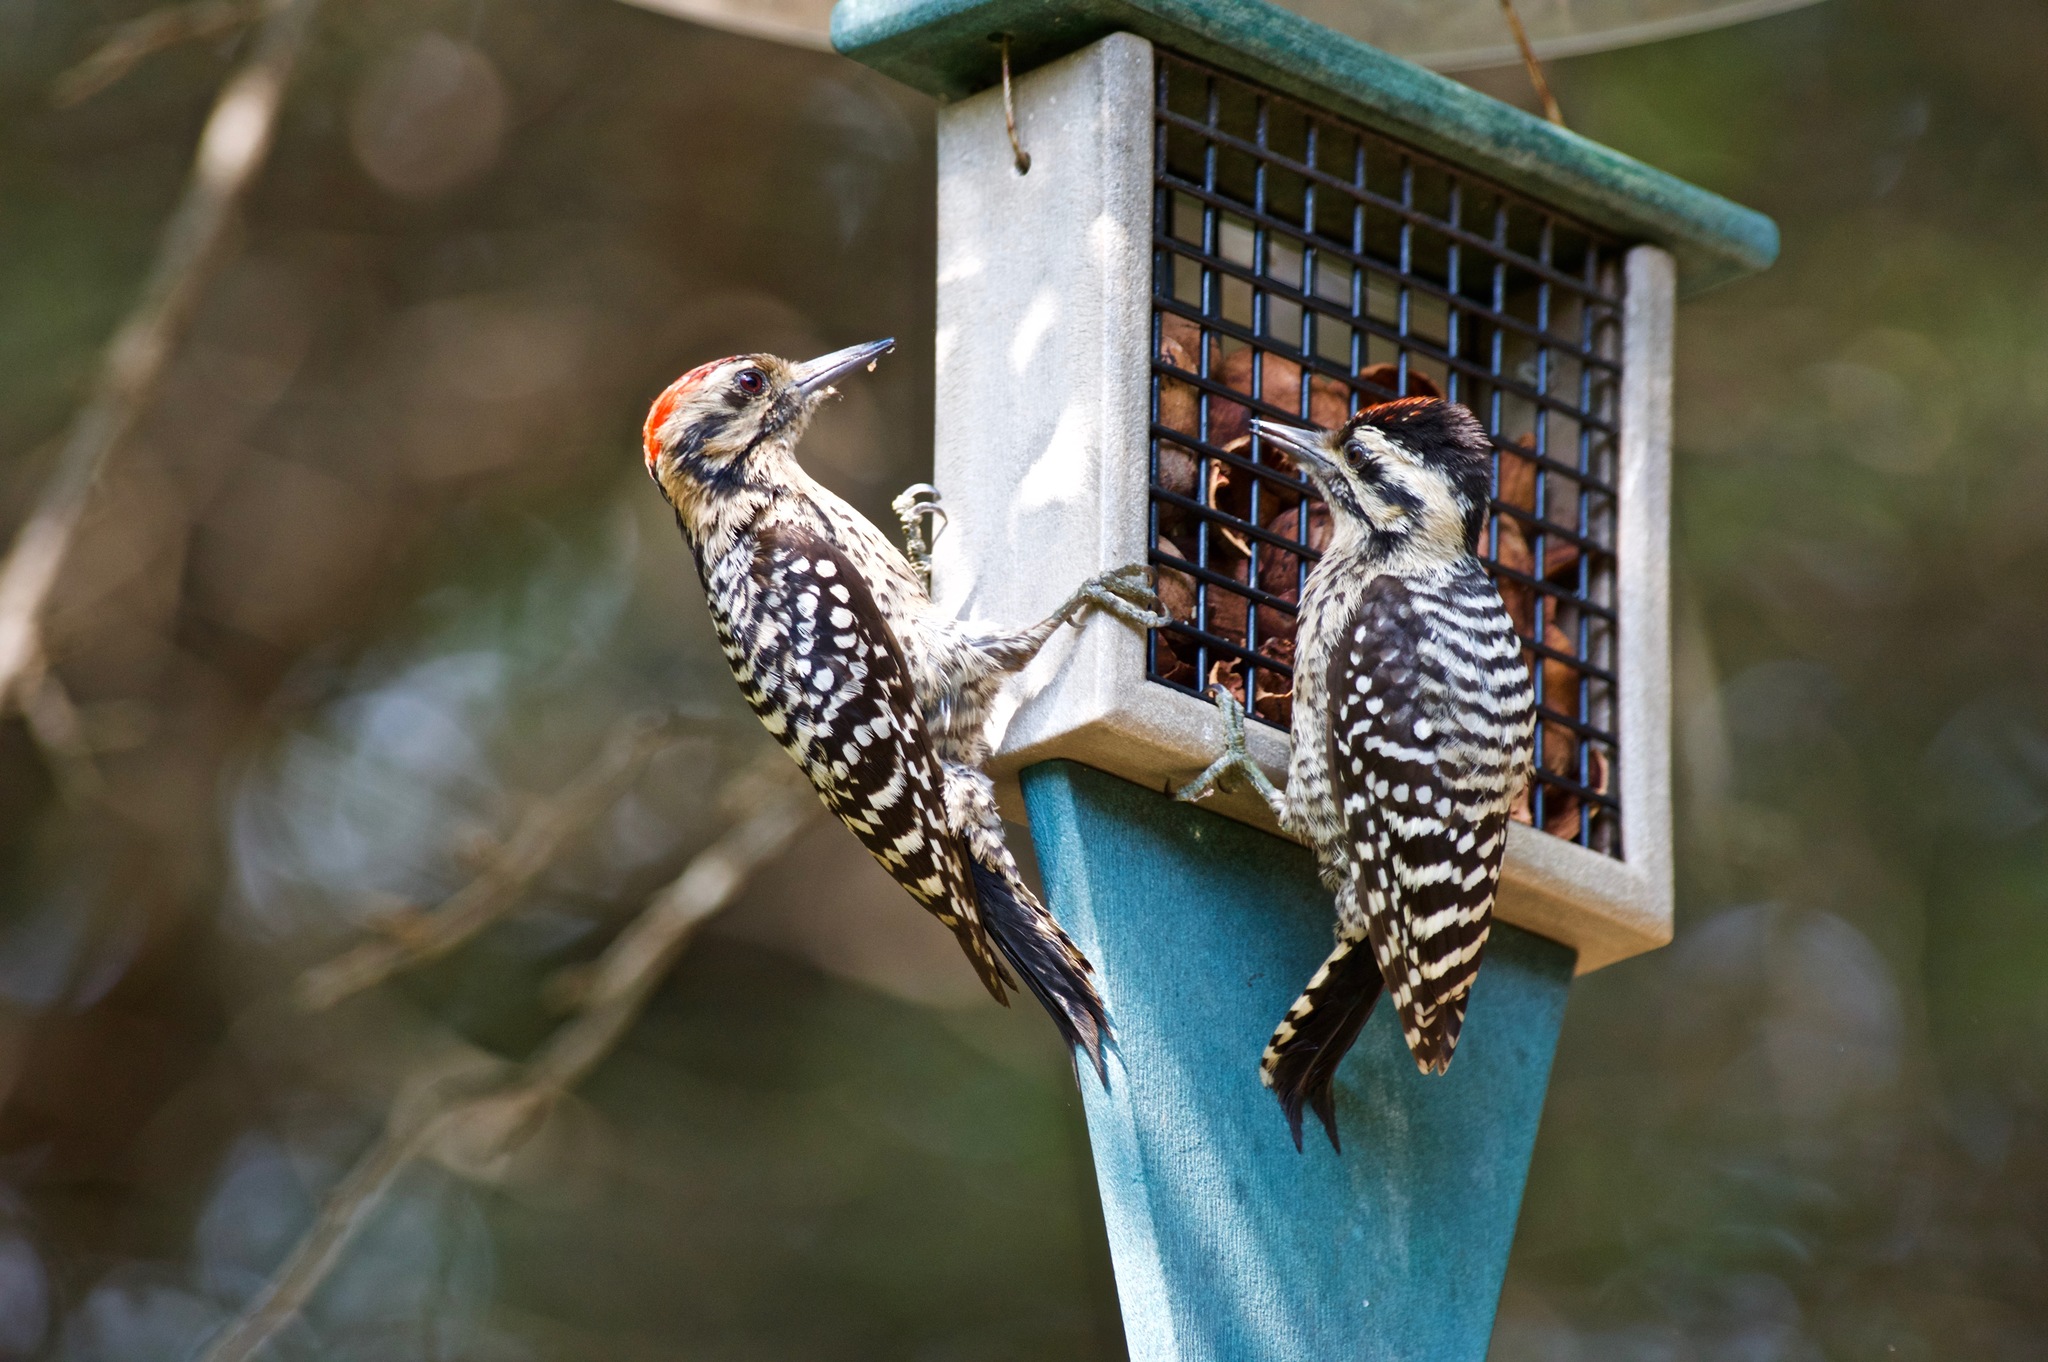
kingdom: Animalia
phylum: Chordata
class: Aves
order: Piciformes
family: Picidae
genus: Dryobates
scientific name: Dryobates scalaris
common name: Ladder-backed woodpecker
